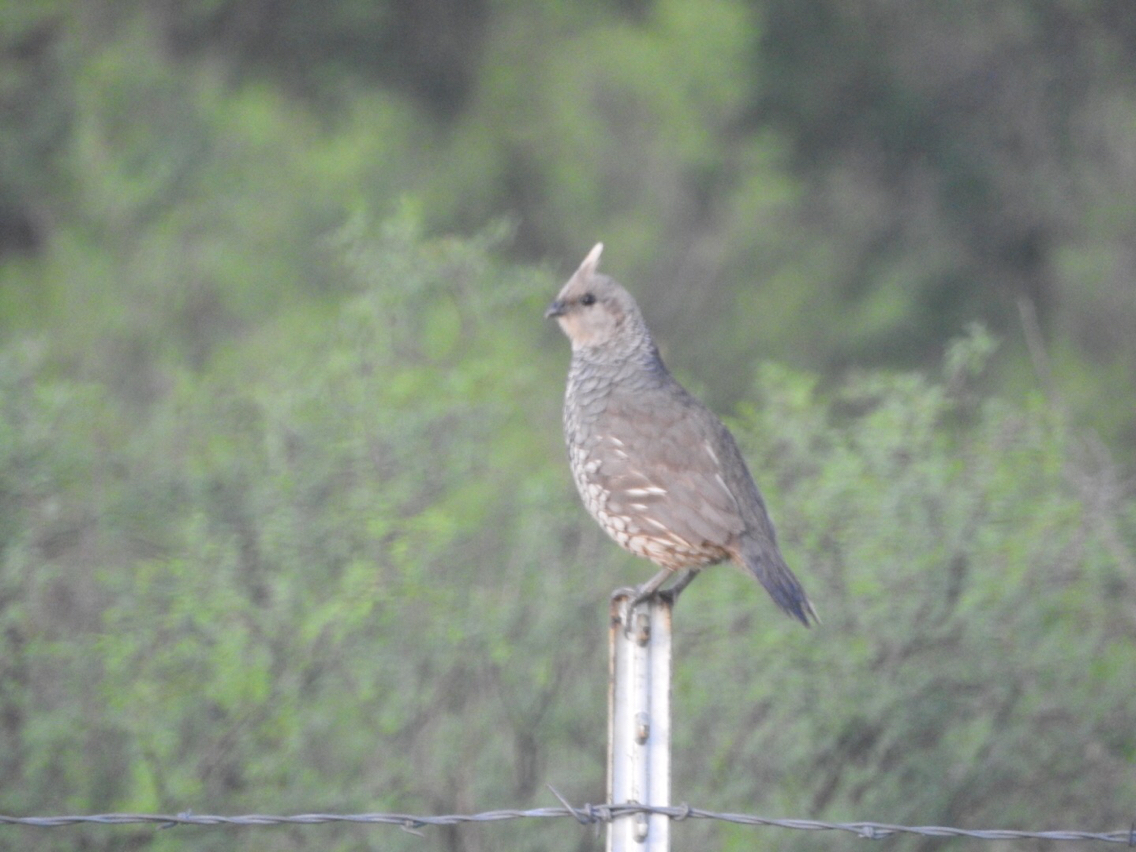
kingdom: Animalia
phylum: Chordata
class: Aves
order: Galliformes
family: Odontophoridae
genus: Callipepla
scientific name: Callipepla squamata
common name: Scaled quail
